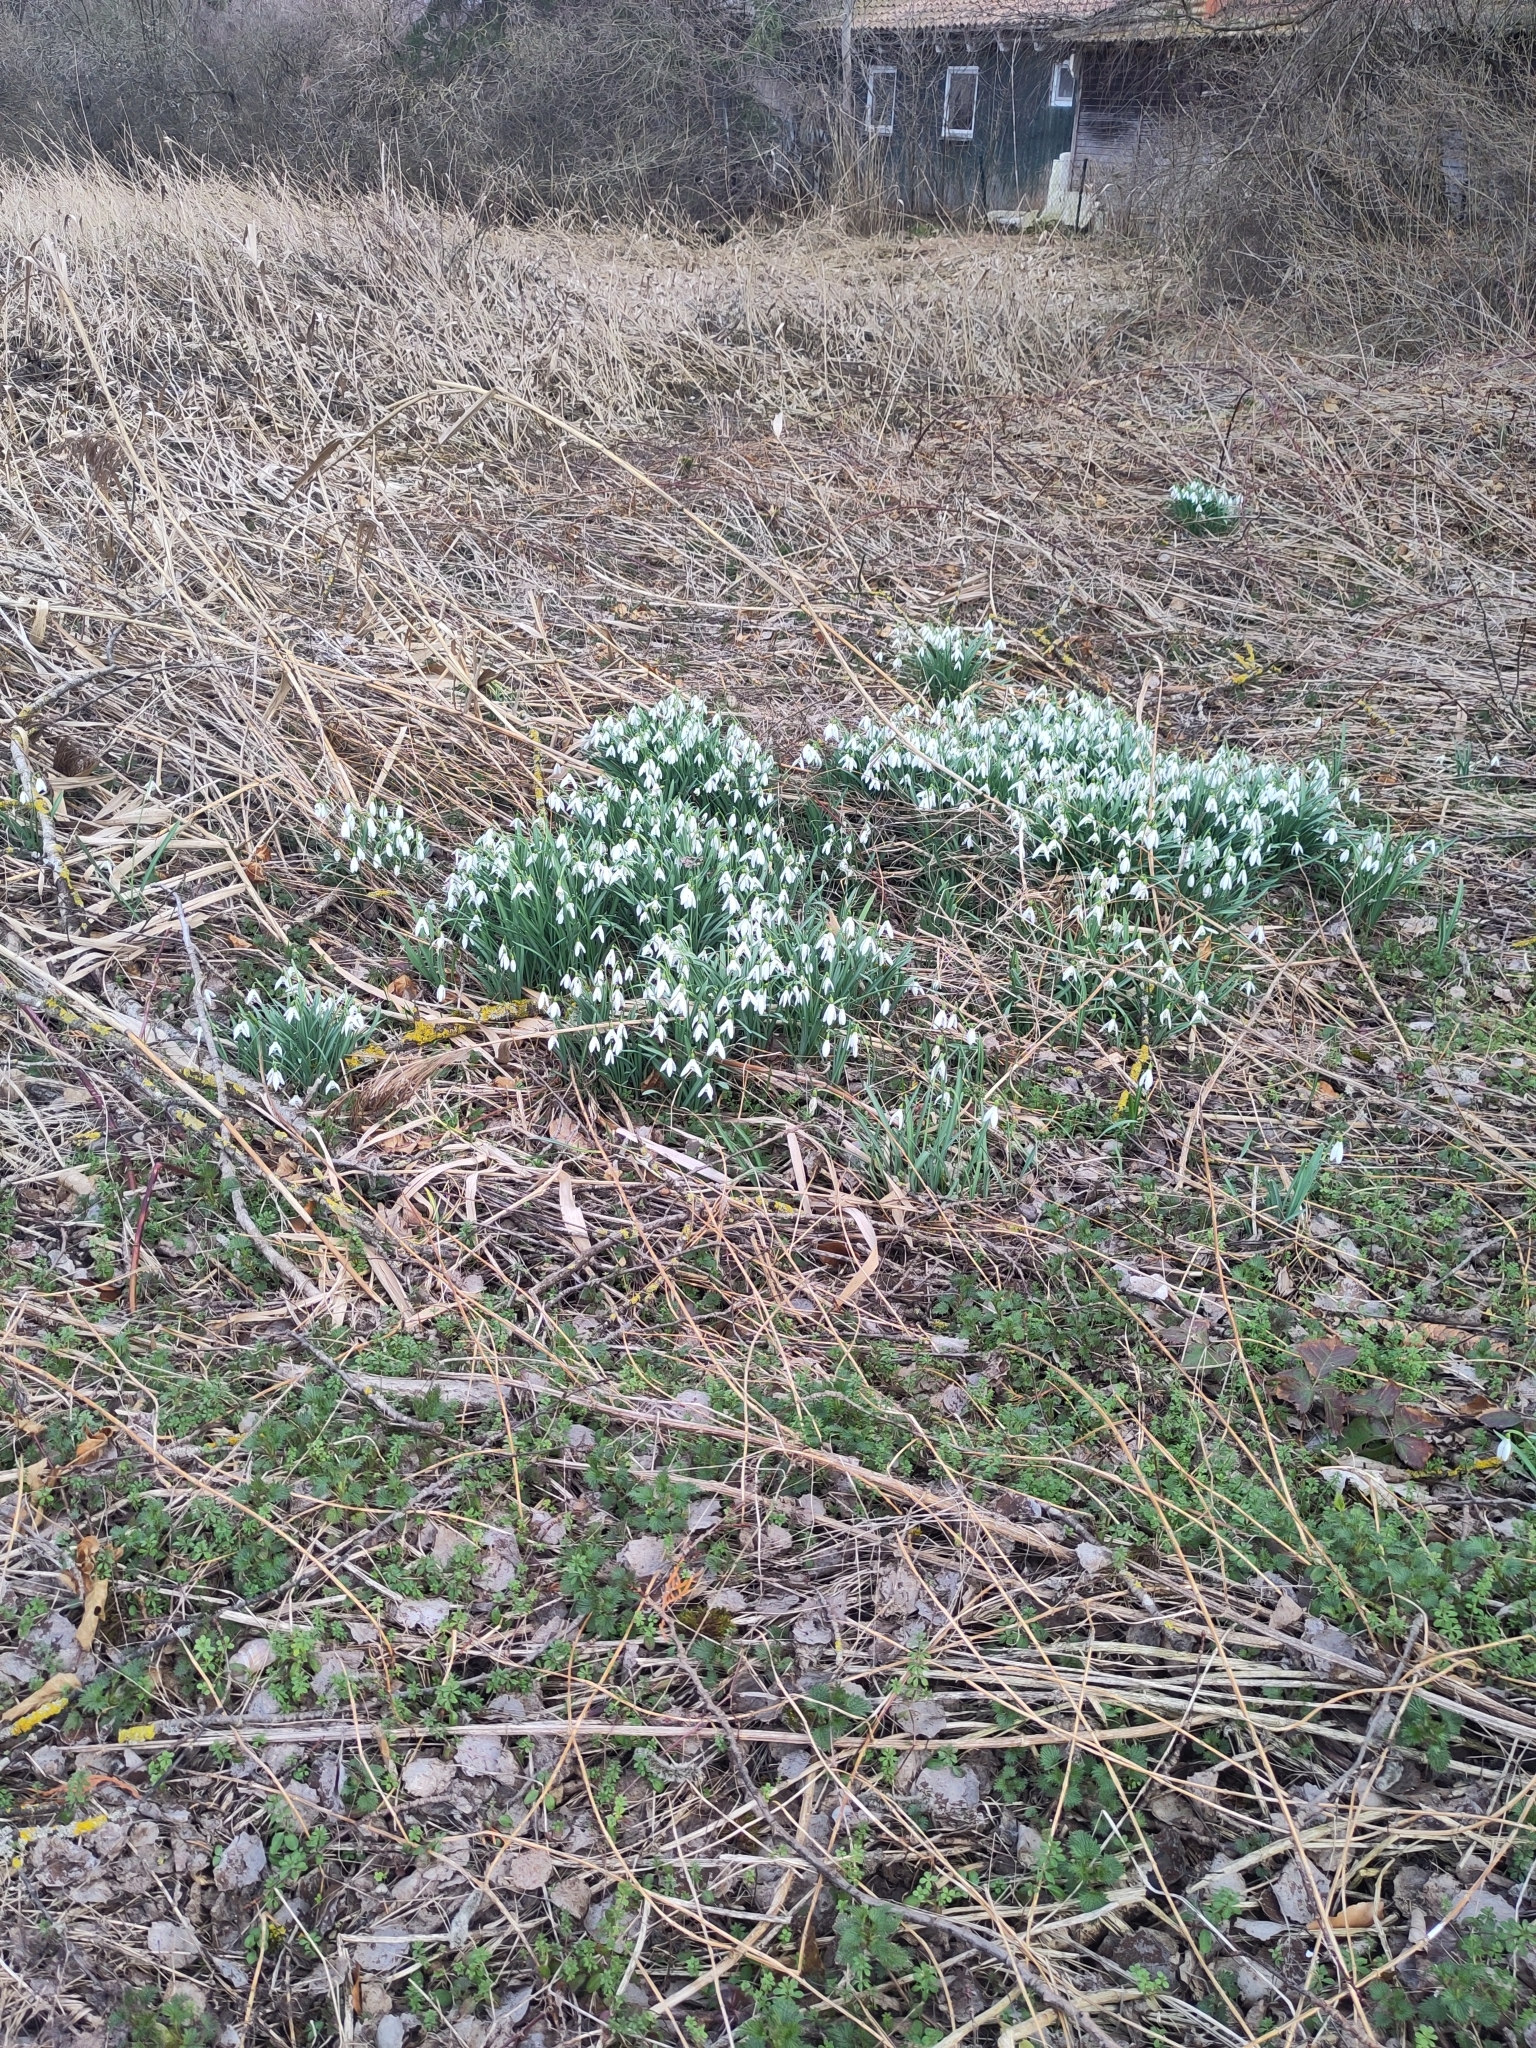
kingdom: Plantae
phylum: Tracheophyta
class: Liliopsida
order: Asparagales
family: Amaryllidaceae
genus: Galanthus
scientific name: Galanthus nivalis
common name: Snowdrop
